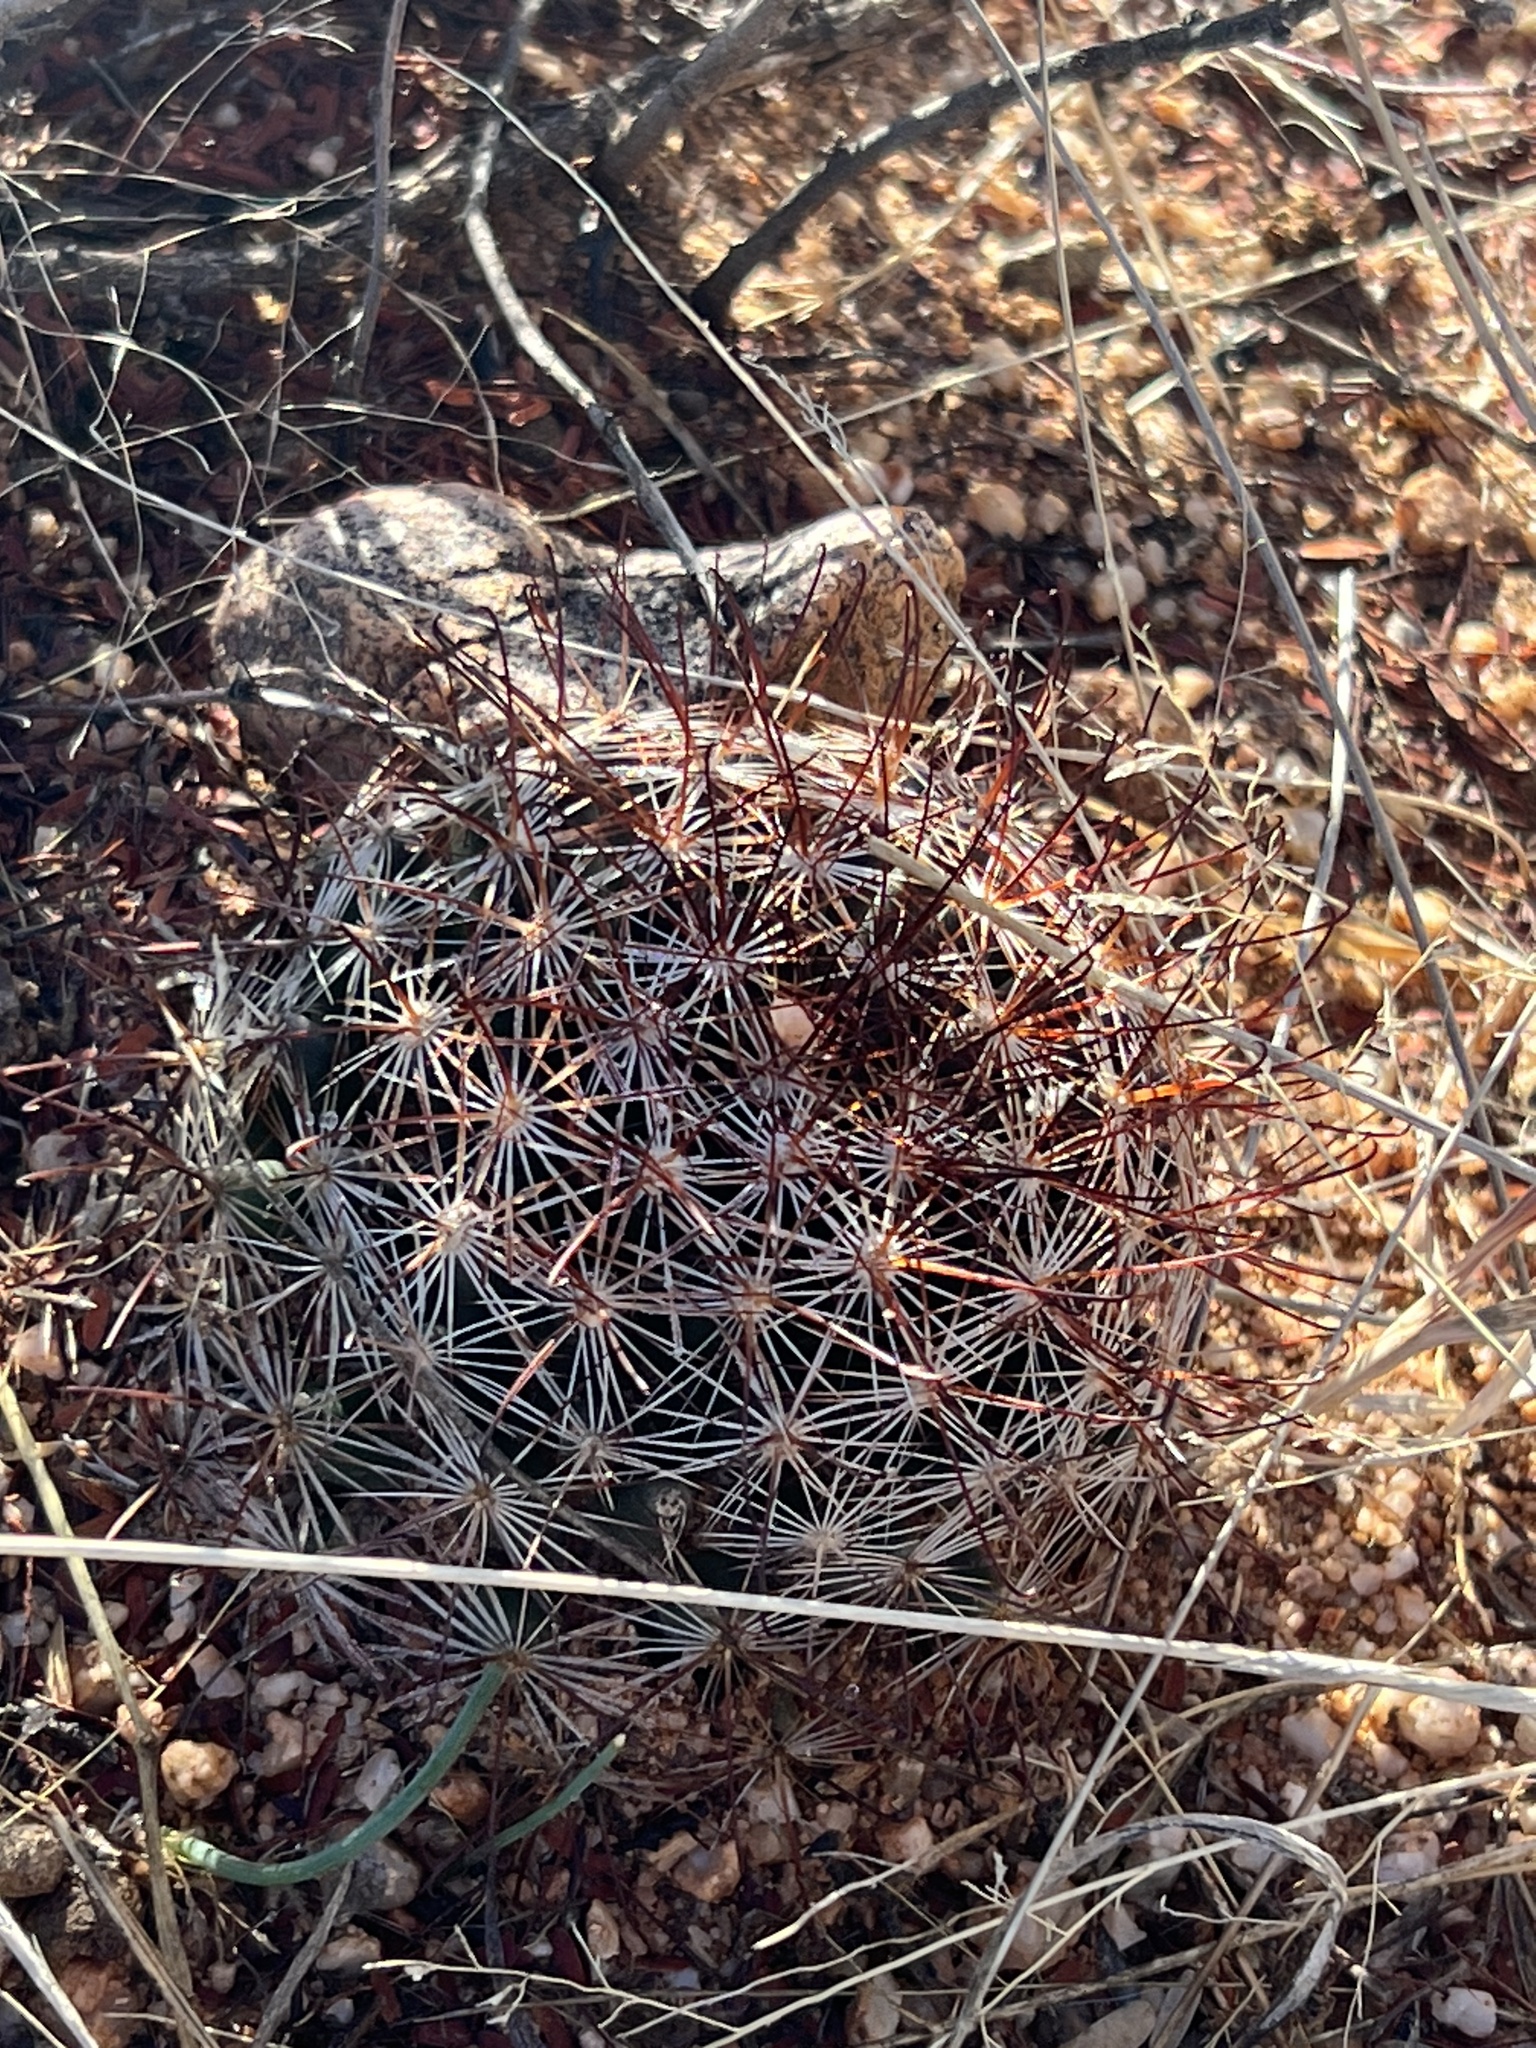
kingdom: Plantae
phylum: Tracheophyta
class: Magnoliopsida
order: Caryophyllales
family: Cactaceae
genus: Cochemiea
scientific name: Cochemiea wrightii
